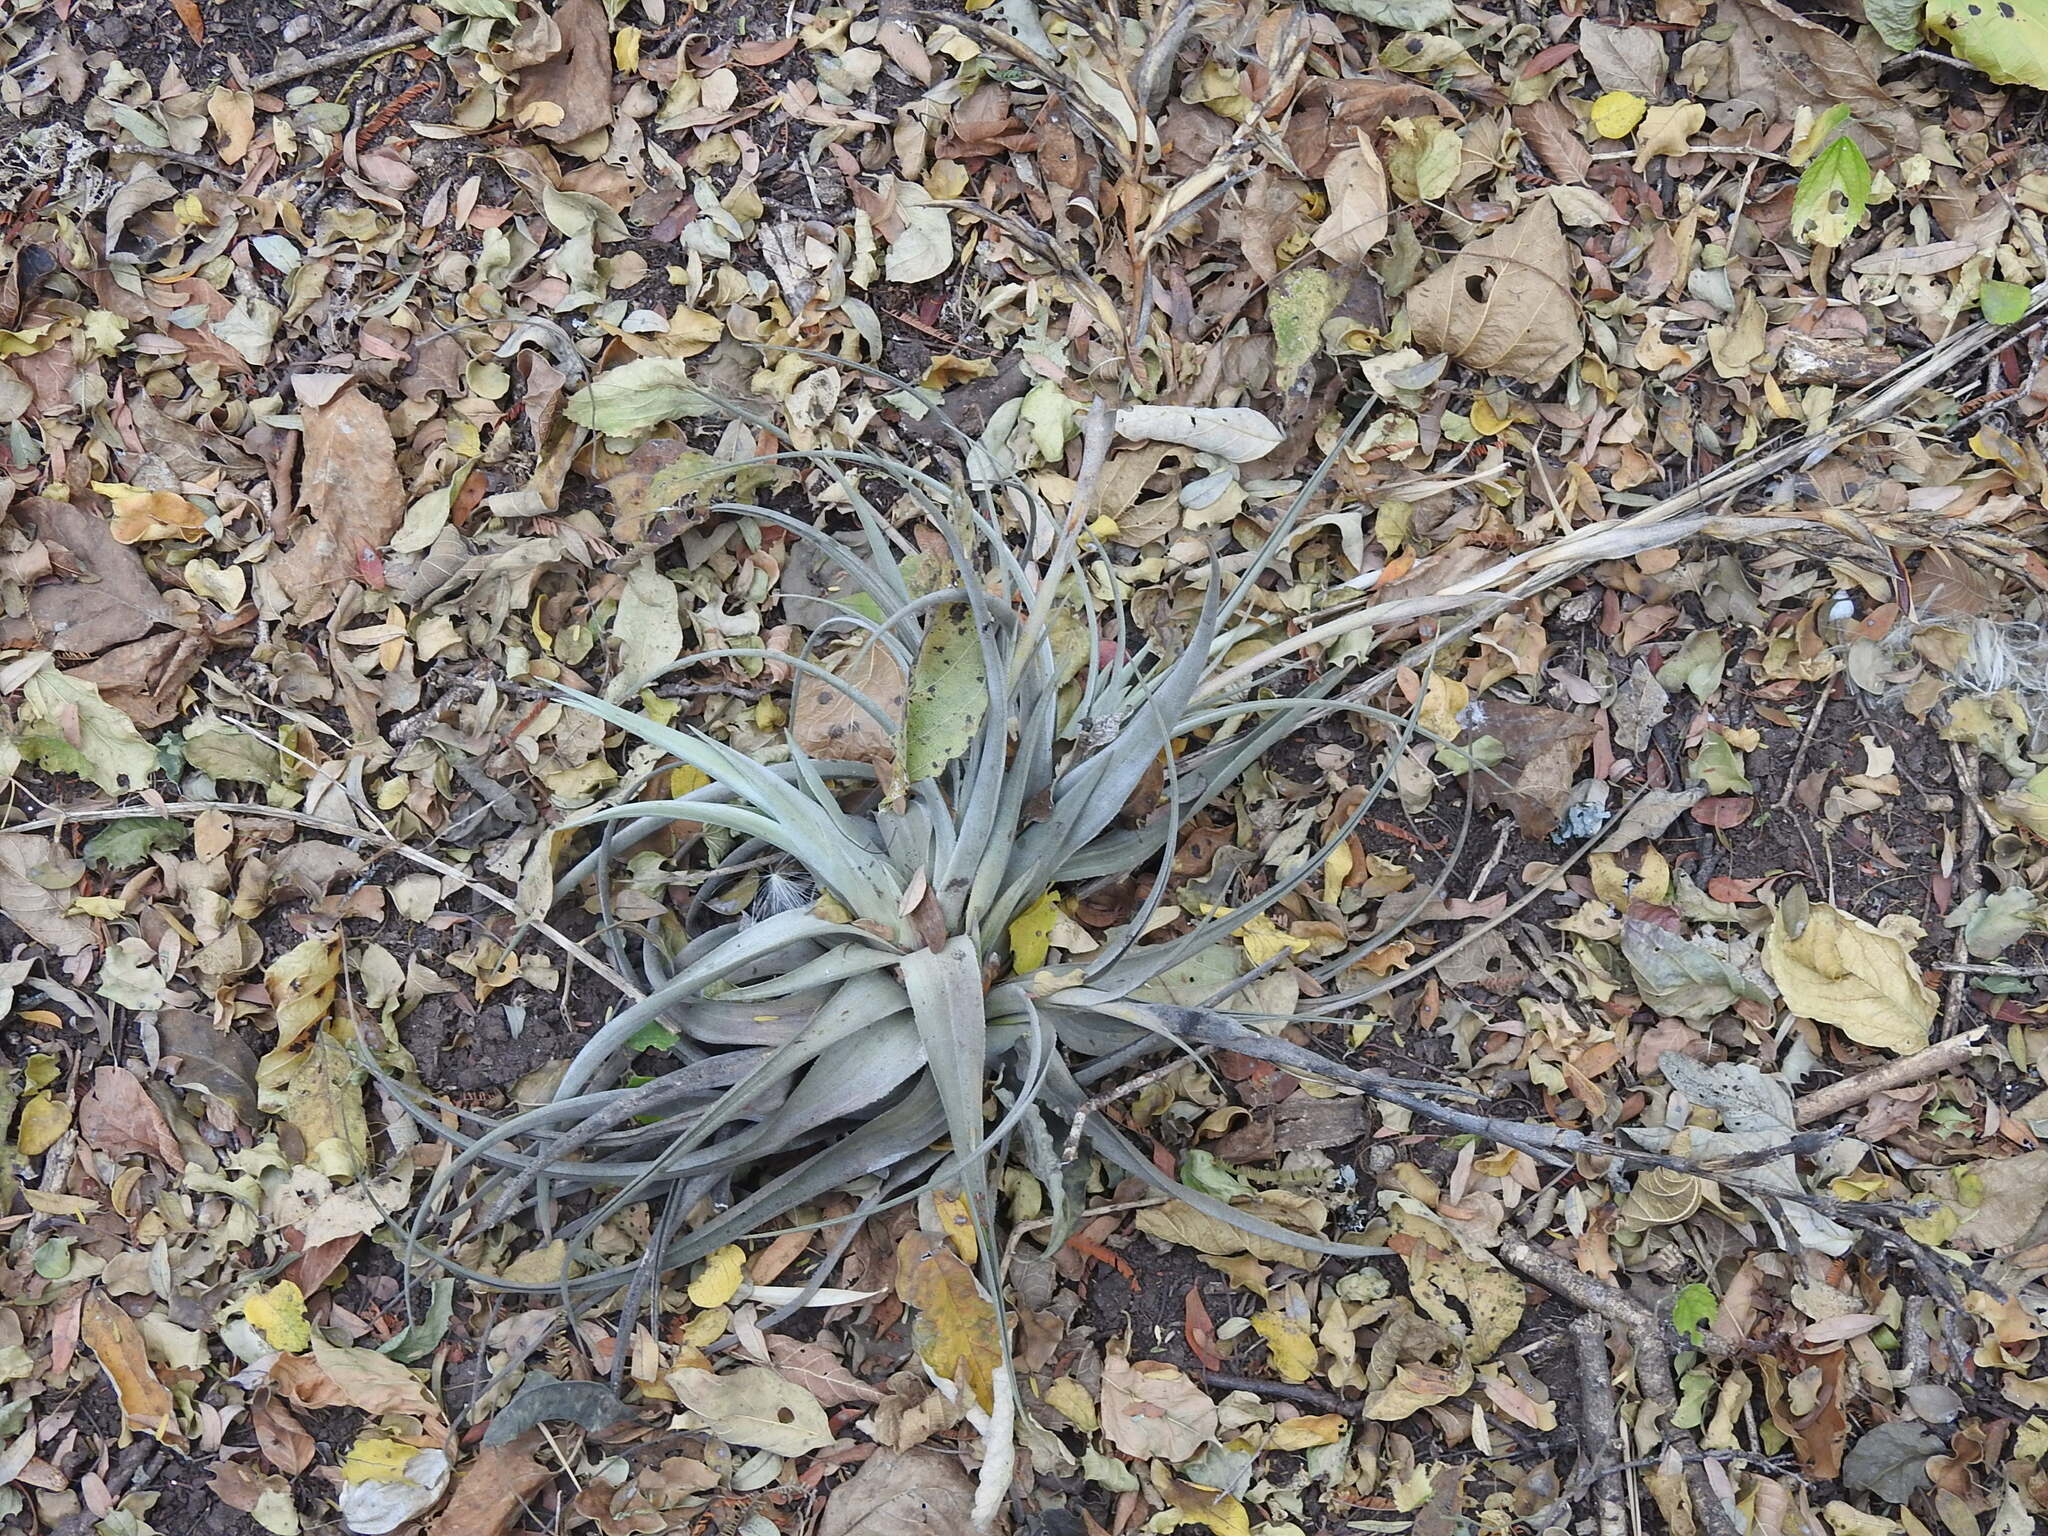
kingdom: Plantae
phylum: Tracheophyta
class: Liliopsida
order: Poales
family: Bromeliaceae
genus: Tillandsia
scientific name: Tillandsia lorentziana
